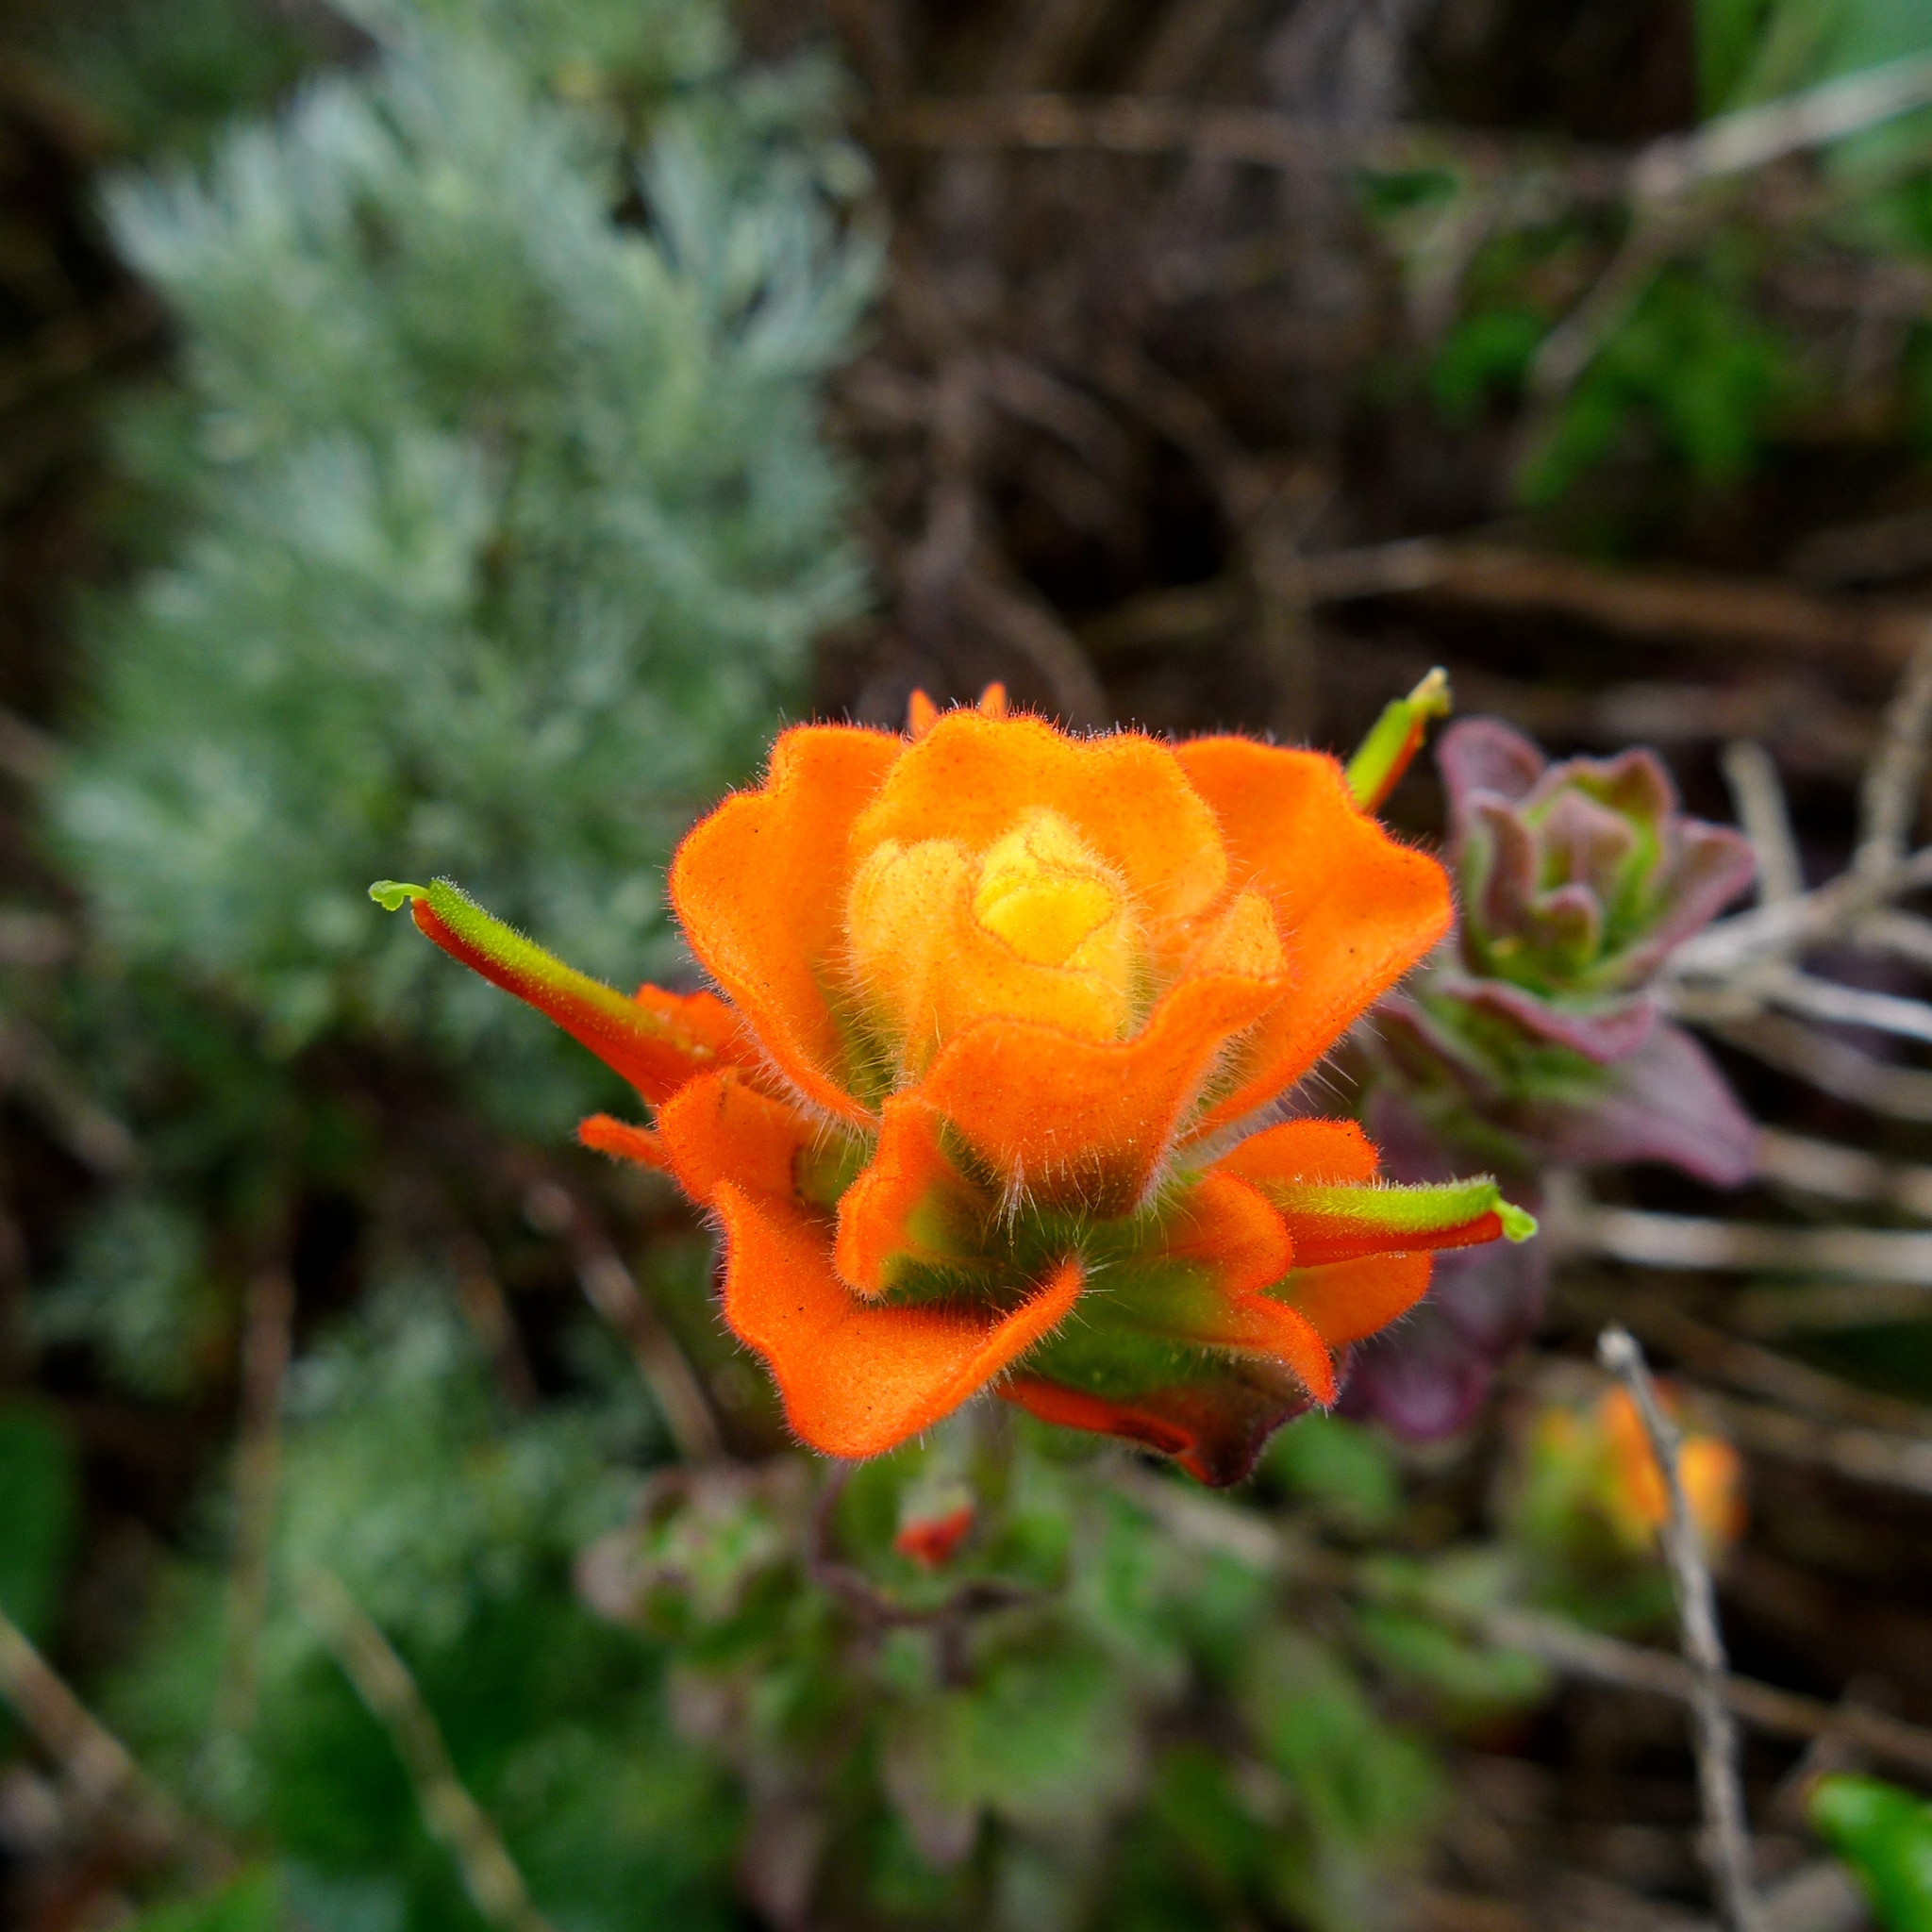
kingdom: Plantae
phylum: Tracheophyta
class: Magnoliopsida
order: Lamiales
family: Orobanchaceae
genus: Castilleja
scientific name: Castilleja latifolia
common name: Monterey indian paintbrush
